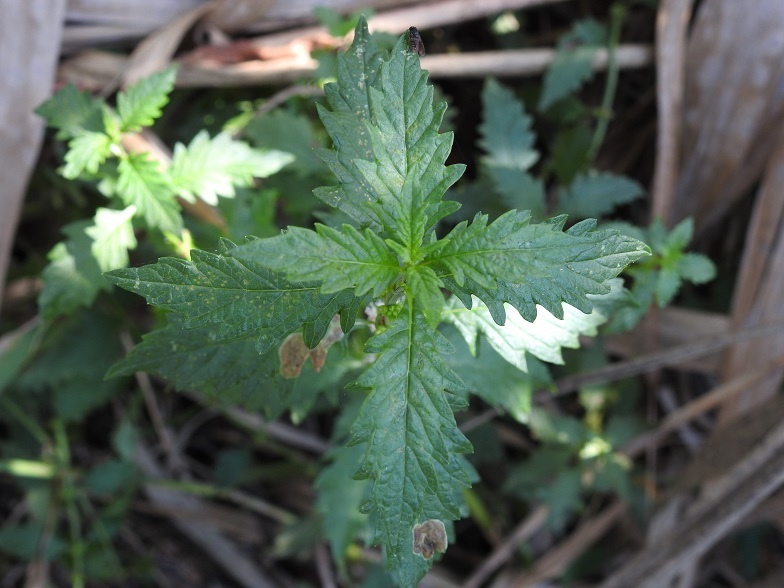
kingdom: Plantae
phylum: Tracheophyta
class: Magnoliopsida
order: Lamiales
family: Lamiaceae
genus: Lycopus
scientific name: Lycopus europaeus
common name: European bugleweed
